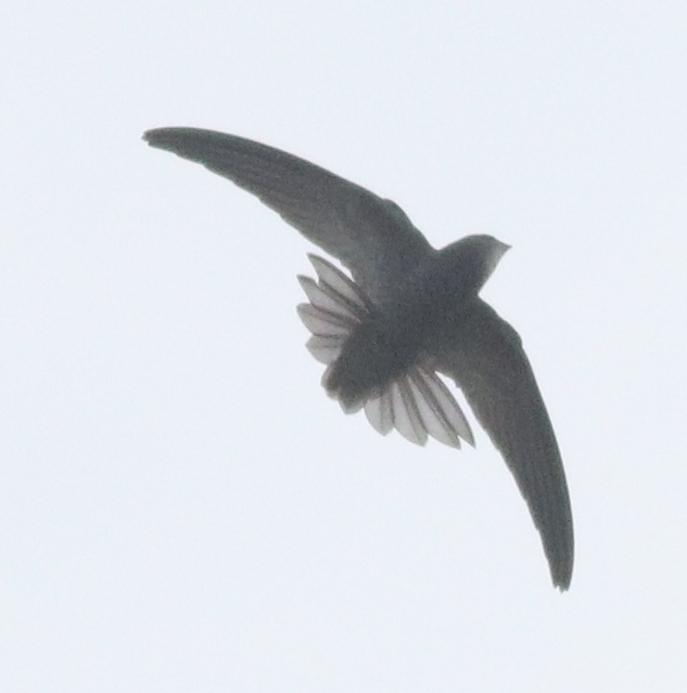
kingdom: Animalia
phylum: Chordata
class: Aves
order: Apodiformes
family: Apodidae
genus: Apus
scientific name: Apus apus
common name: Common swift
